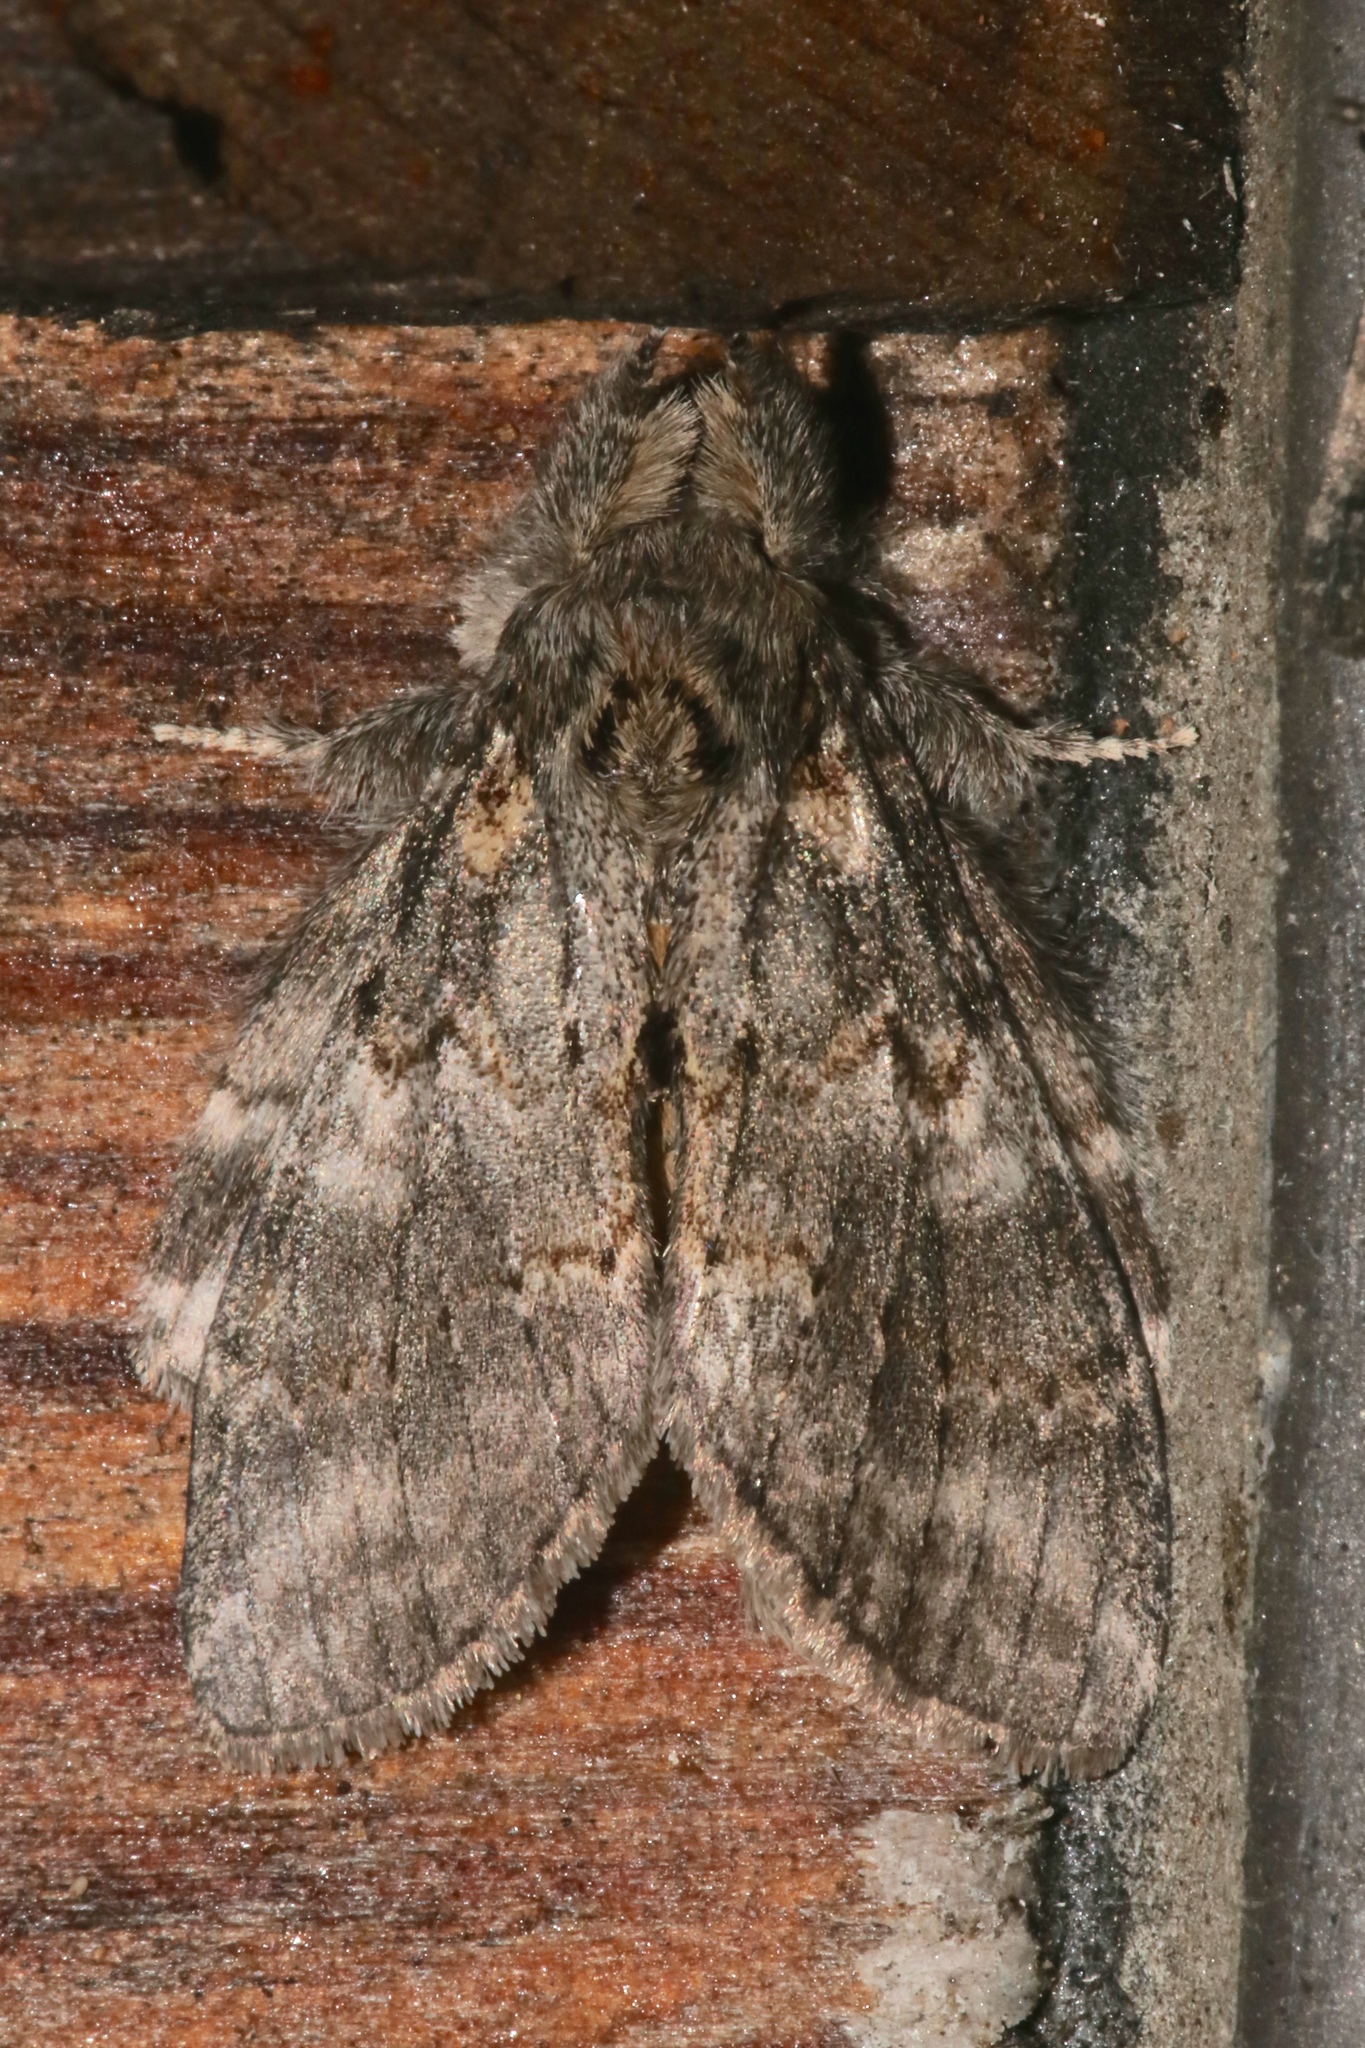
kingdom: Animalia
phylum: Arthropoda
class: Insecta
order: Lepidoptera
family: Notodontidae
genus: Peridea
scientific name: Peridea angulosa
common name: Angulose prominent
